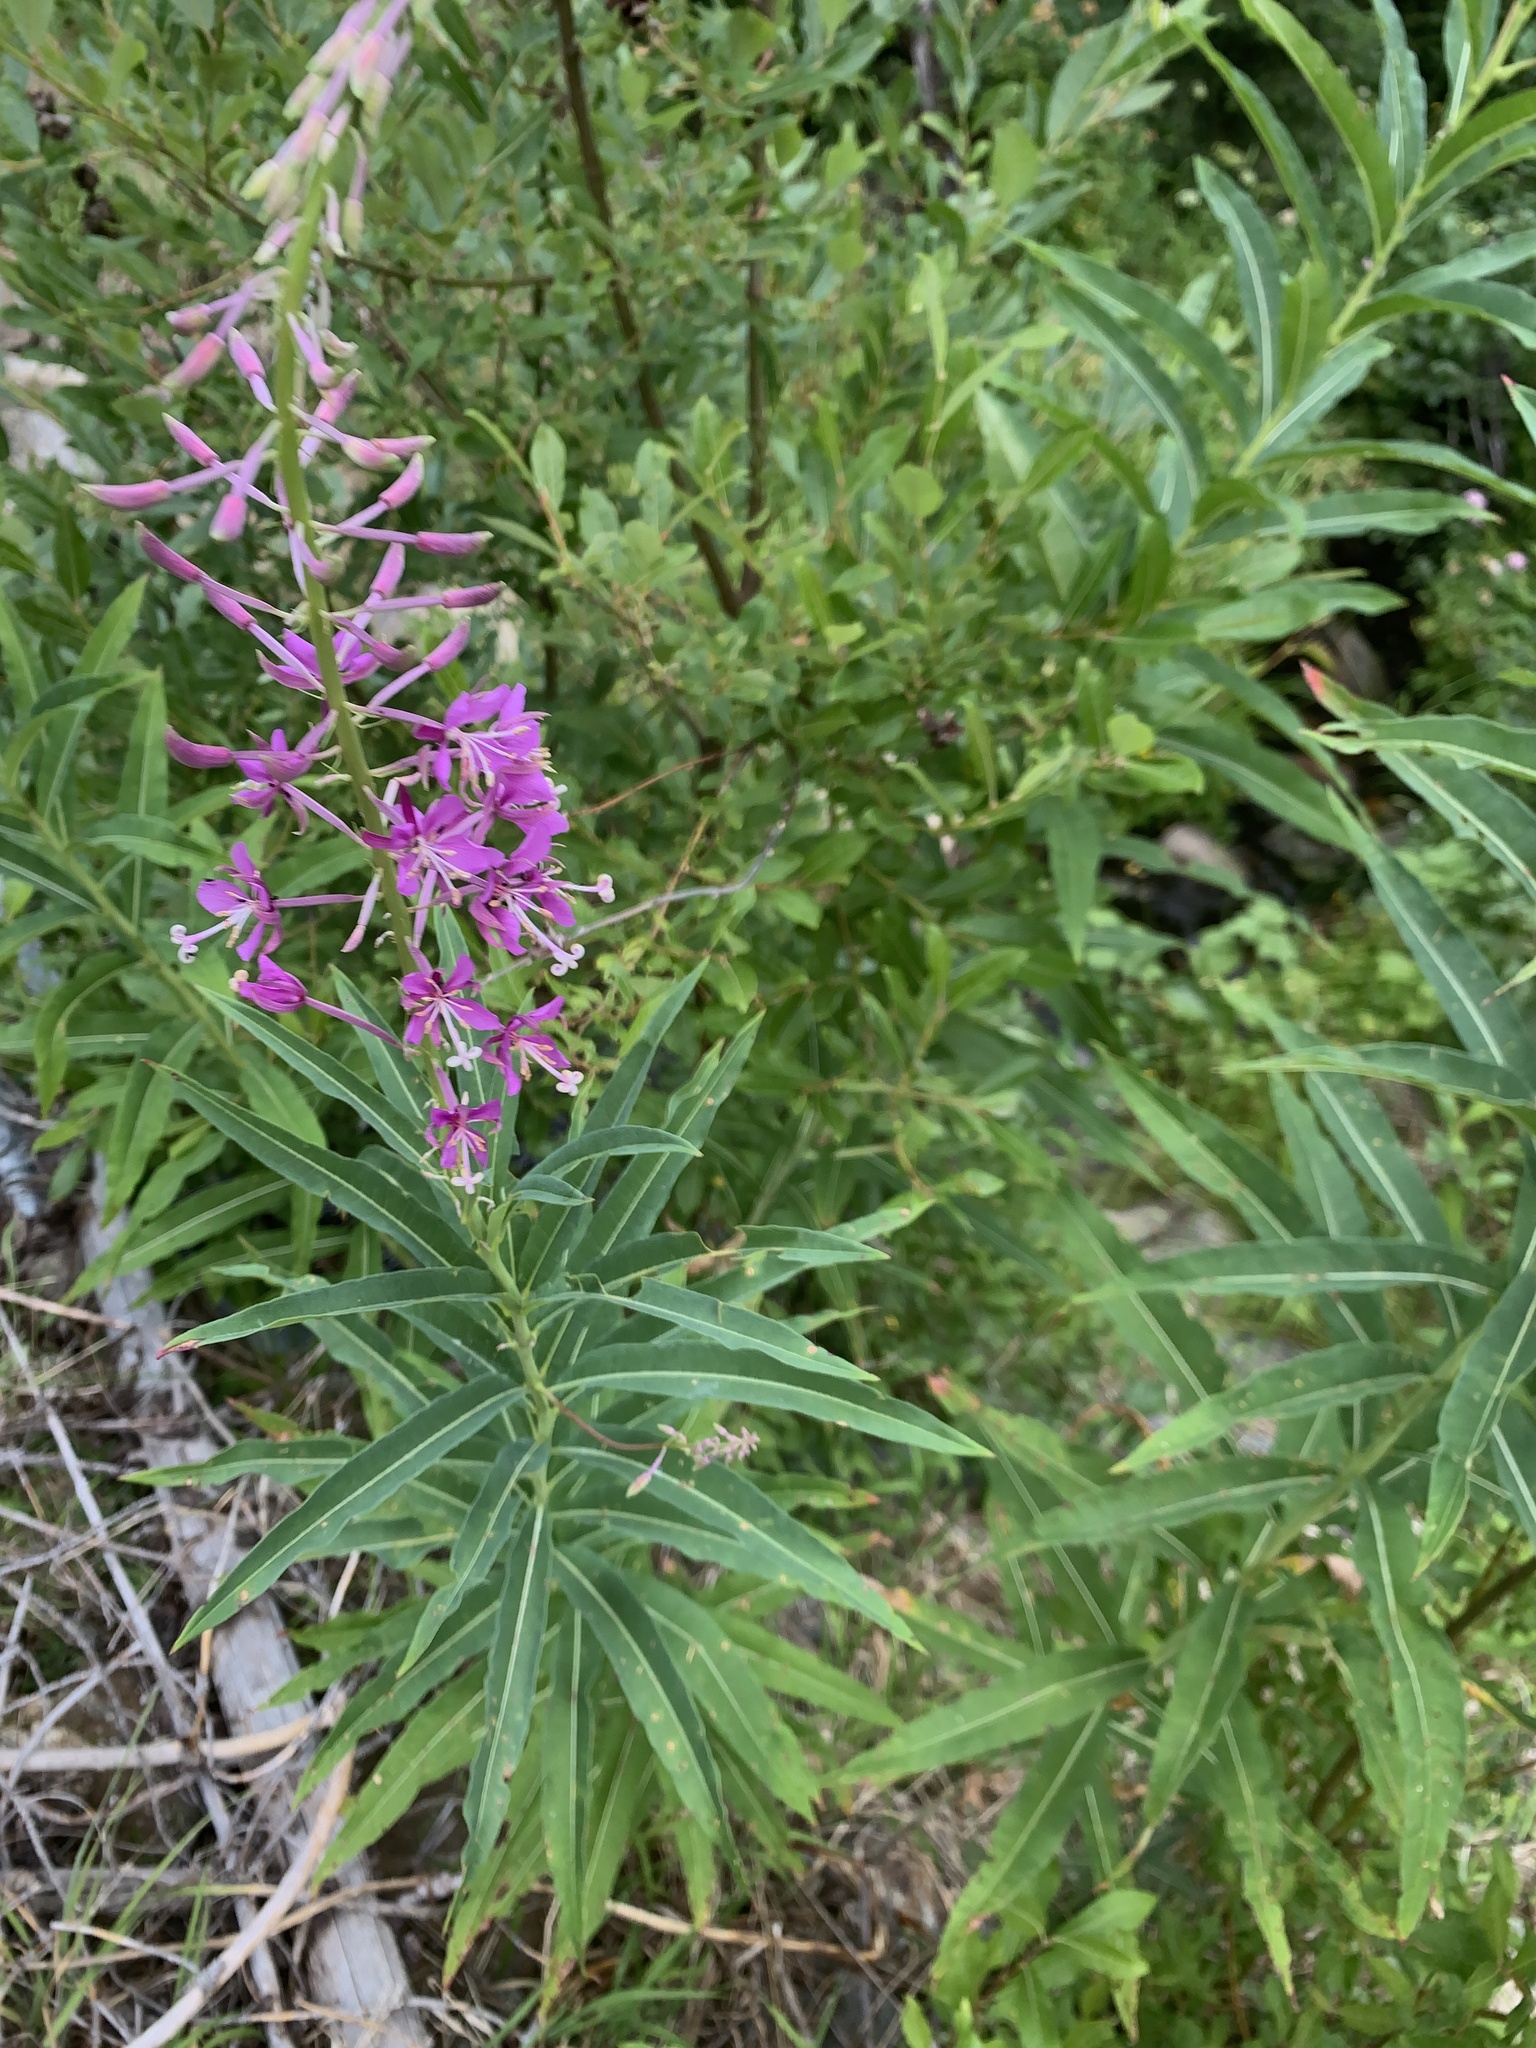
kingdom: Plantae
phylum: Tracheophyta
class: Magnoliopsida
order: Myrtales
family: Onagraceae
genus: Chamaenerion
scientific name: Chamaenerion angustifolium
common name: Fireweed
